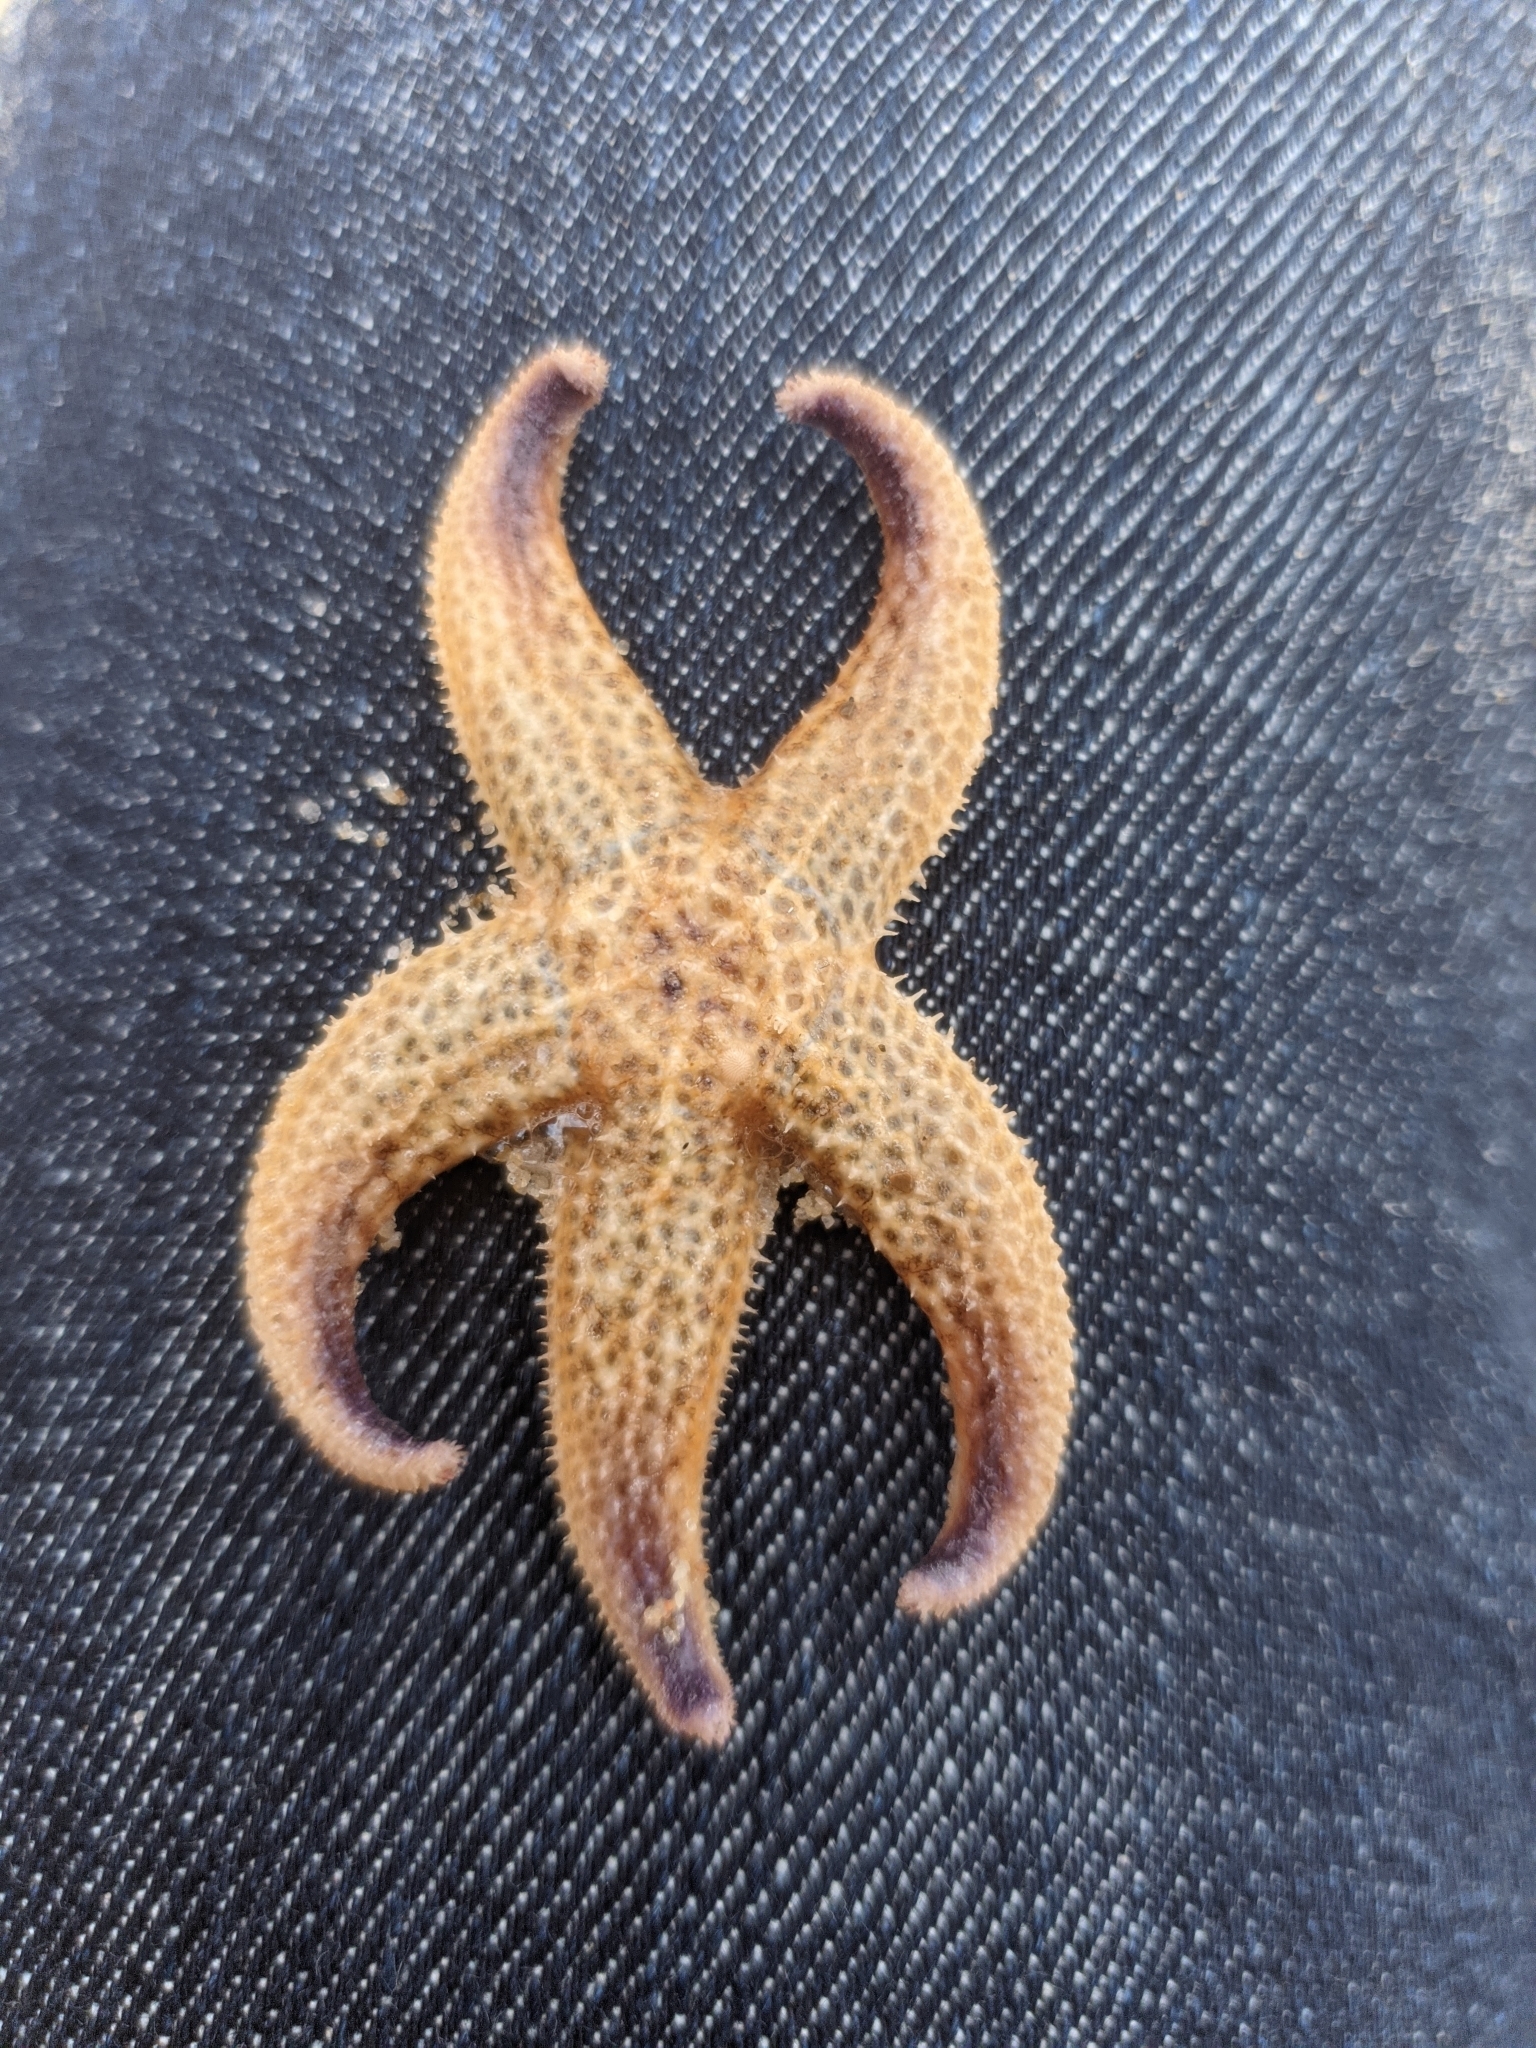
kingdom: Animalia
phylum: Echinodermata
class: Asteroidea
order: Forcipulatida
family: Asteriidae
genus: Asterias
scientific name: Asterias amurensis
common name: Flat-bottomed star
